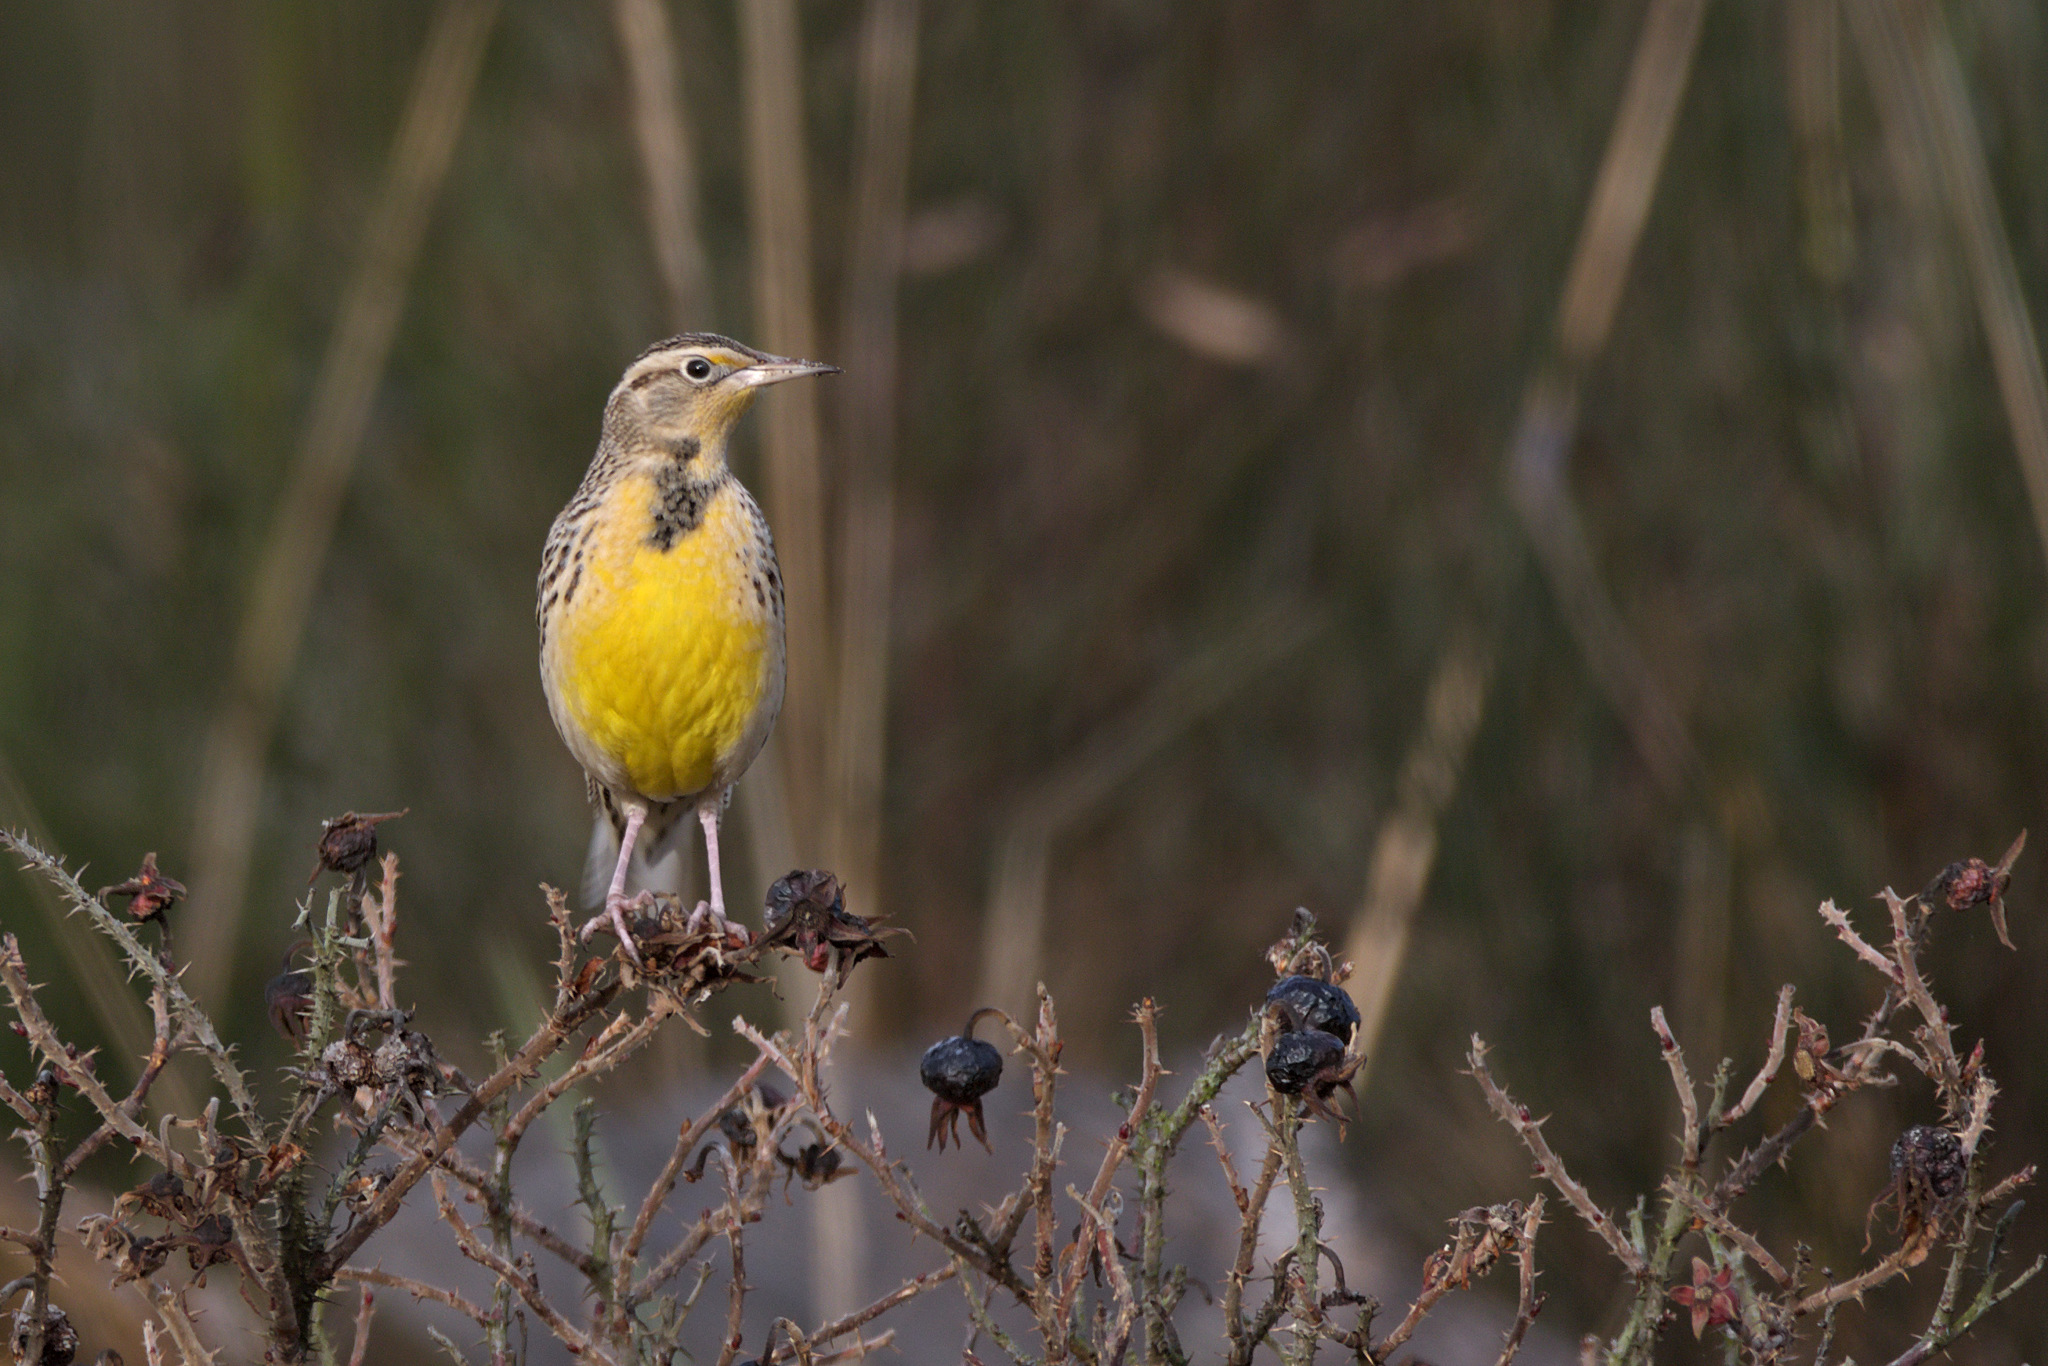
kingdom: Animalia
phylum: Chordata
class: Aves
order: Passeriformes
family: Icteridae
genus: Sturnella
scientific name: Sturnella neglecta
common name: Western meadowlark
